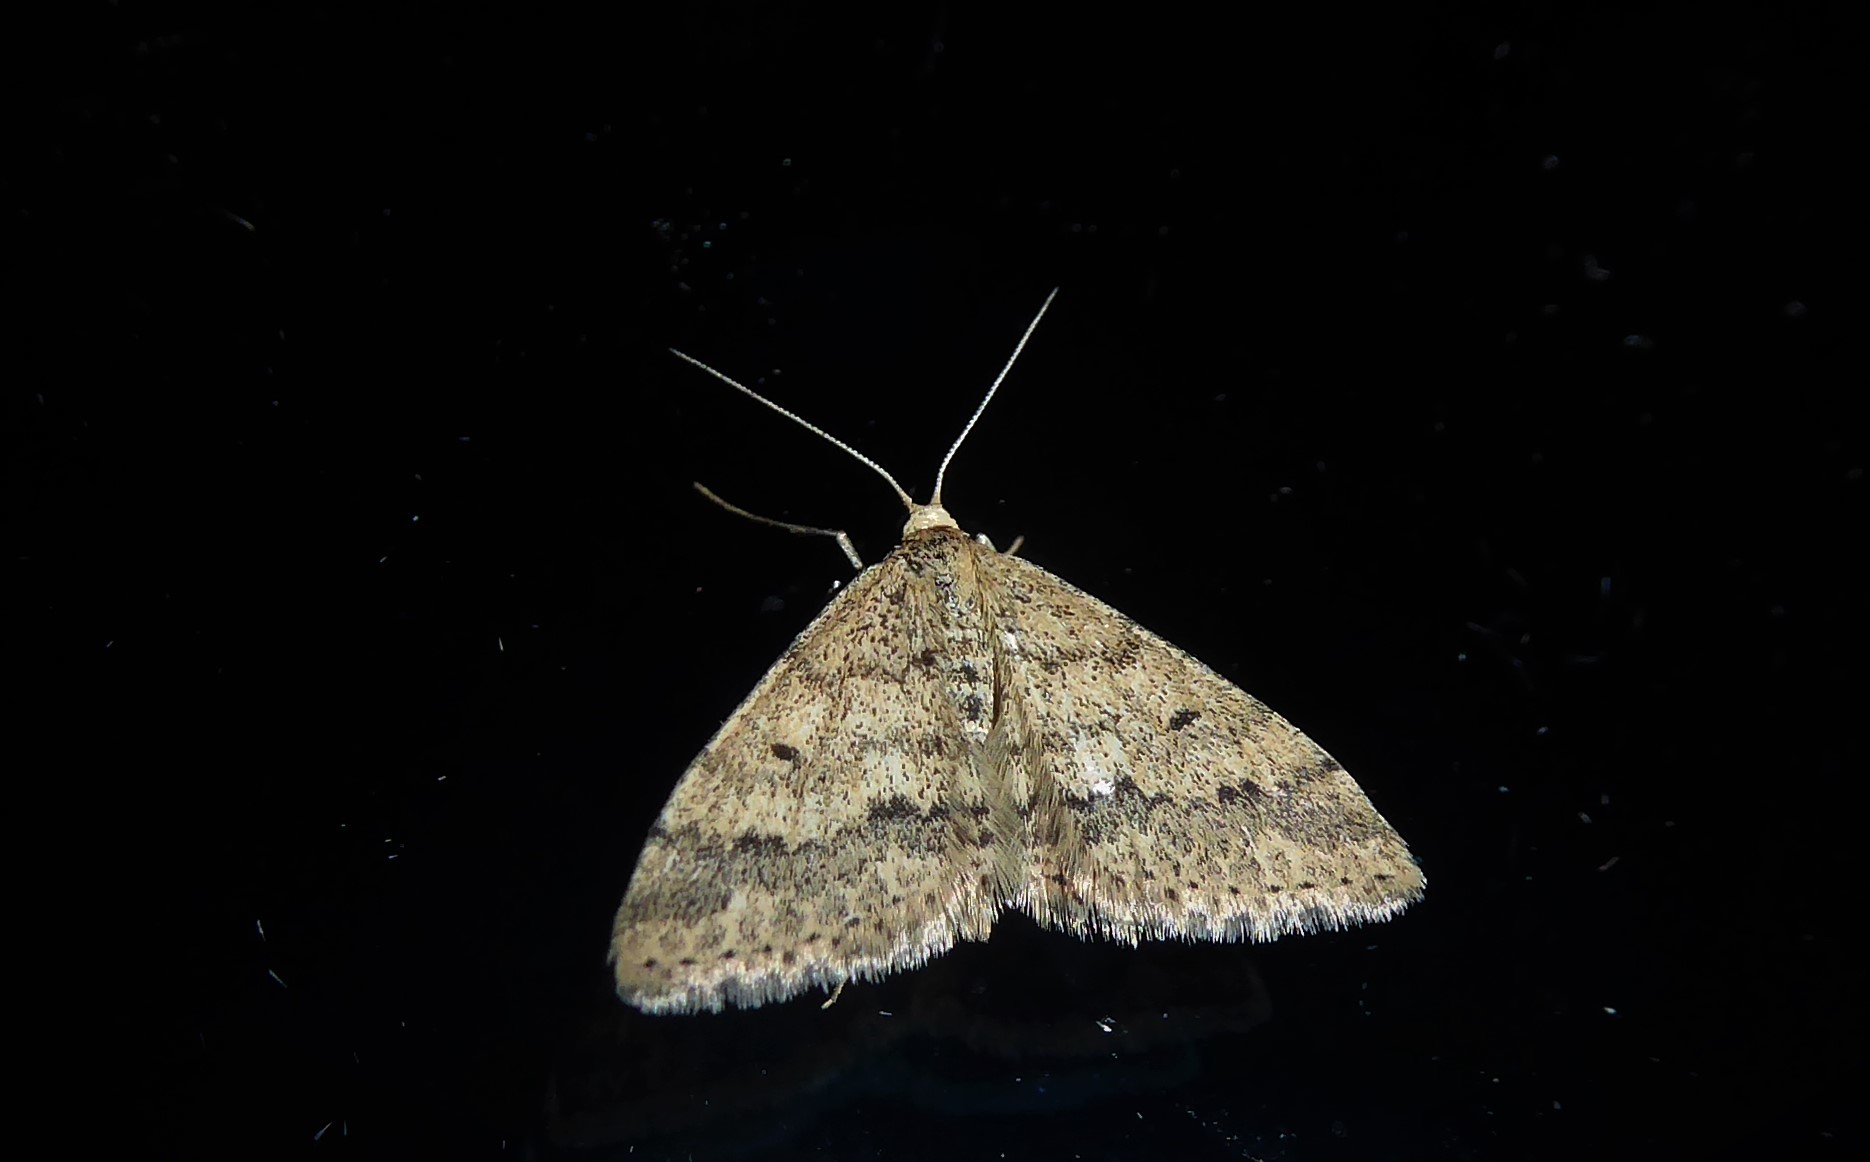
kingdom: Animalia
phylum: Arthropoda
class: Insecta
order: Lepidoptera
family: Geometridae
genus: Scopula
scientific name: Scopula rubraria
